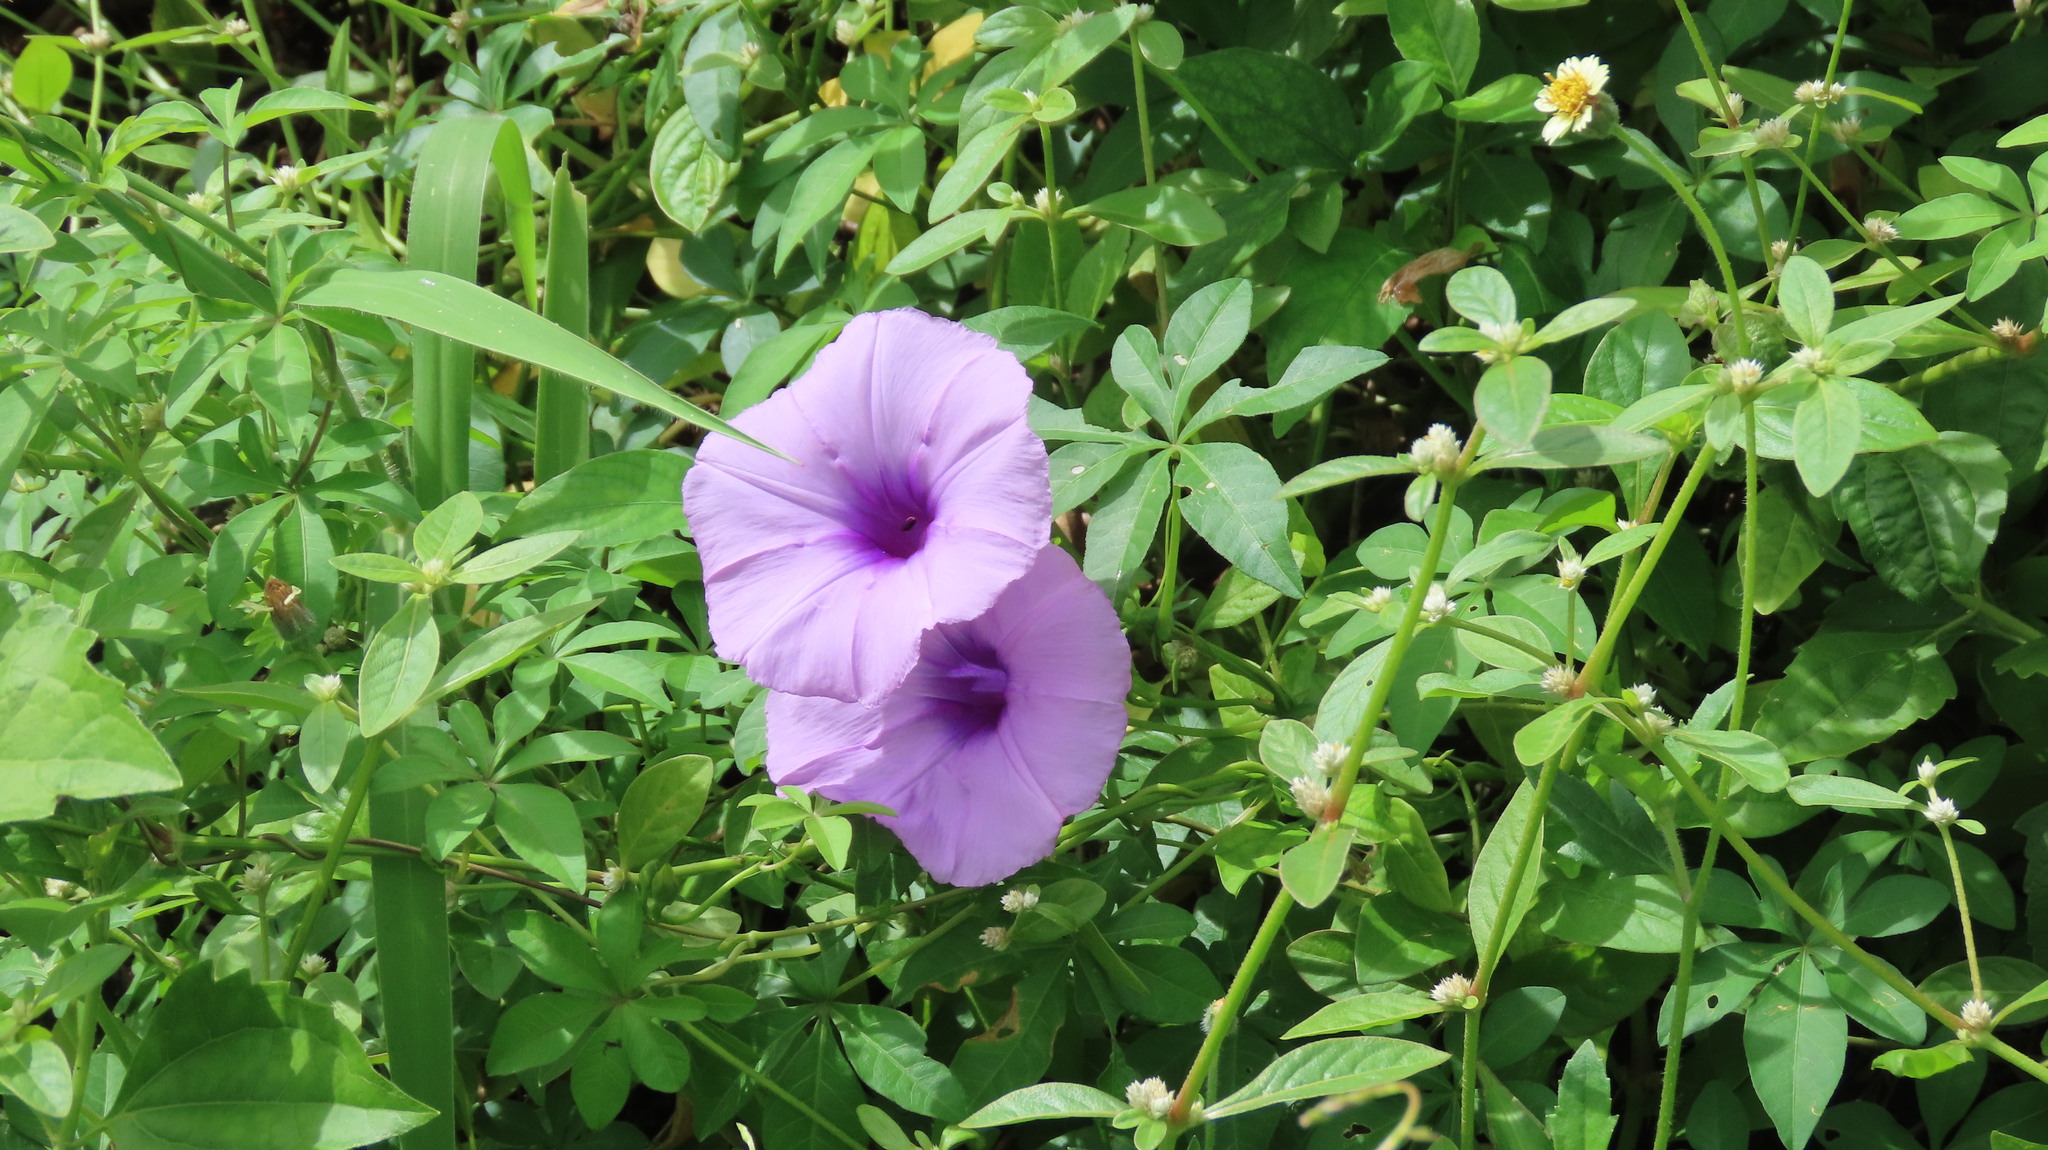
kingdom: Plantae
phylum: Tracheophyta
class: Magnoliopsida
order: Solanales
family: Convolvulaceae
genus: Ipomoea
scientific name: Ipomoea cairica
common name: Mile a minute vine
